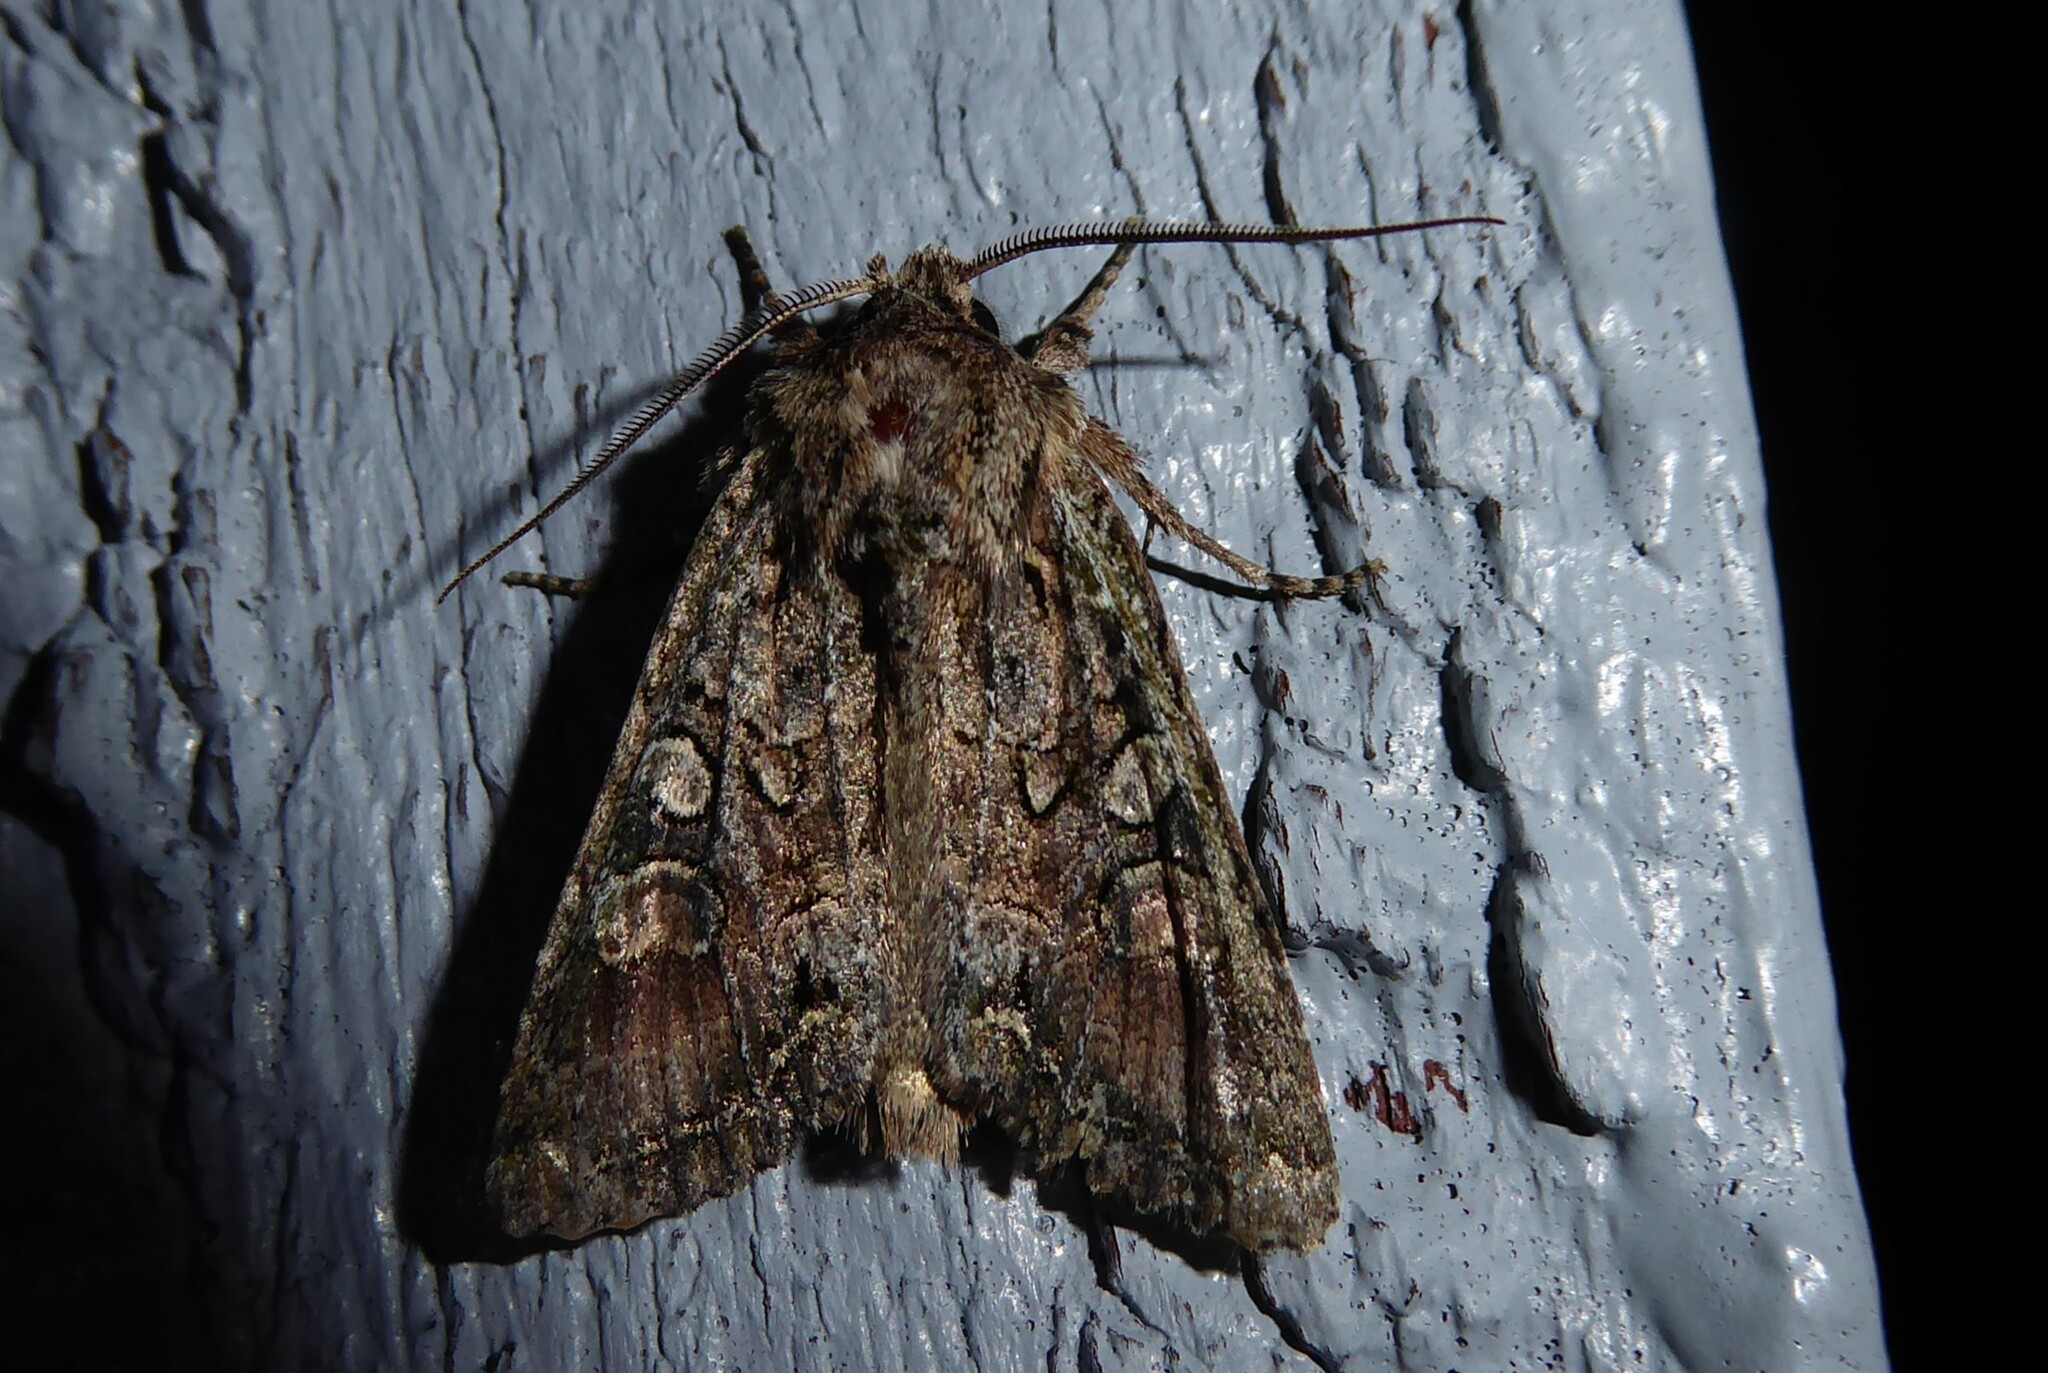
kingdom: Animalia
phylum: Arthropoda
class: Insecta
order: Lepidoptera
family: Noctuidae
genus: Ichneutica
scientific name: Ichneutica mutans
